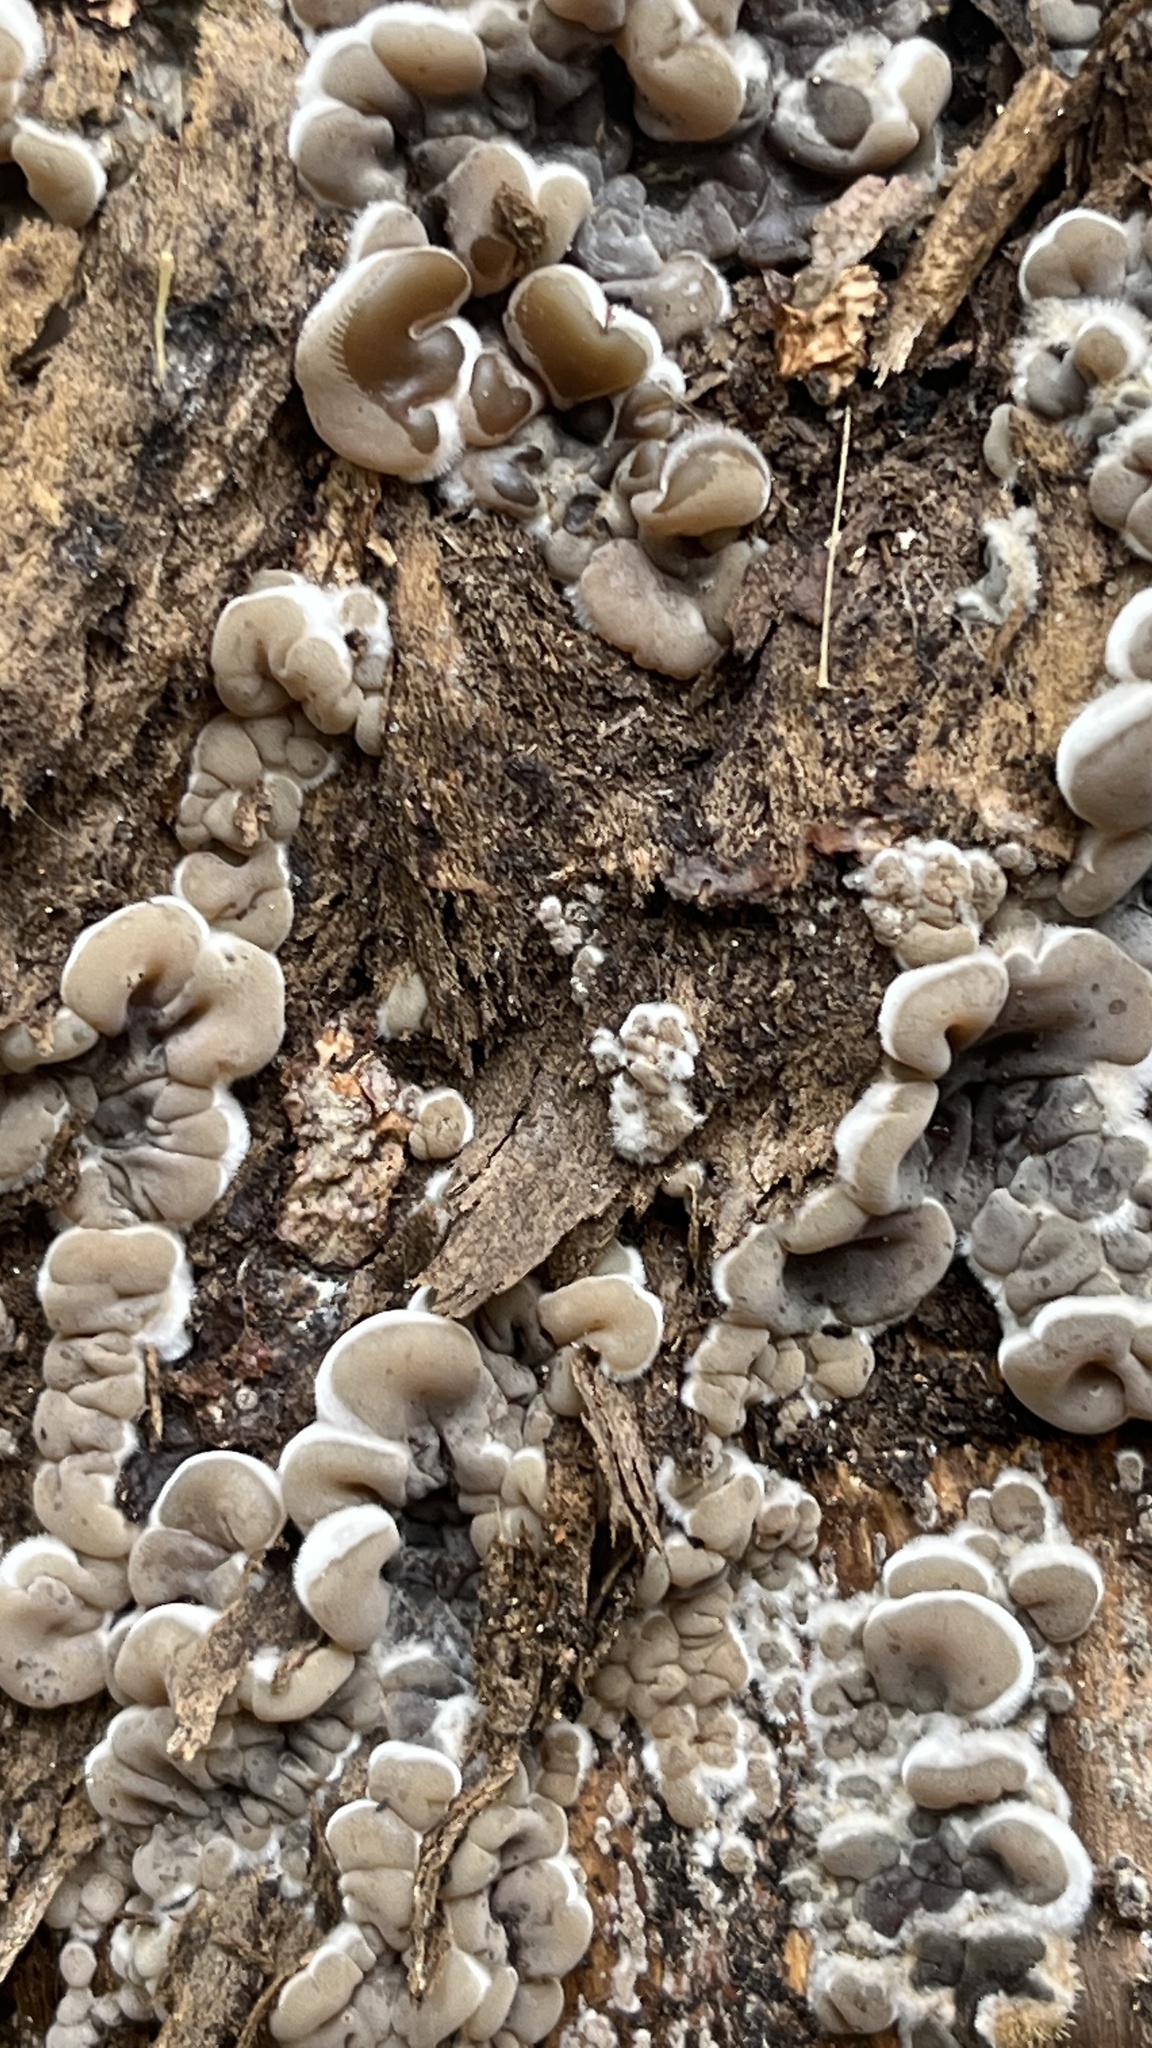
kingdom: Fungi
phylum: Basidiomycota
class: Agaricomycetes
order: Auriculariales
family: Auriculariaceae
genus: Auricularia
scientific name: Auricularia mesenterica
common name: Tripe fungus
